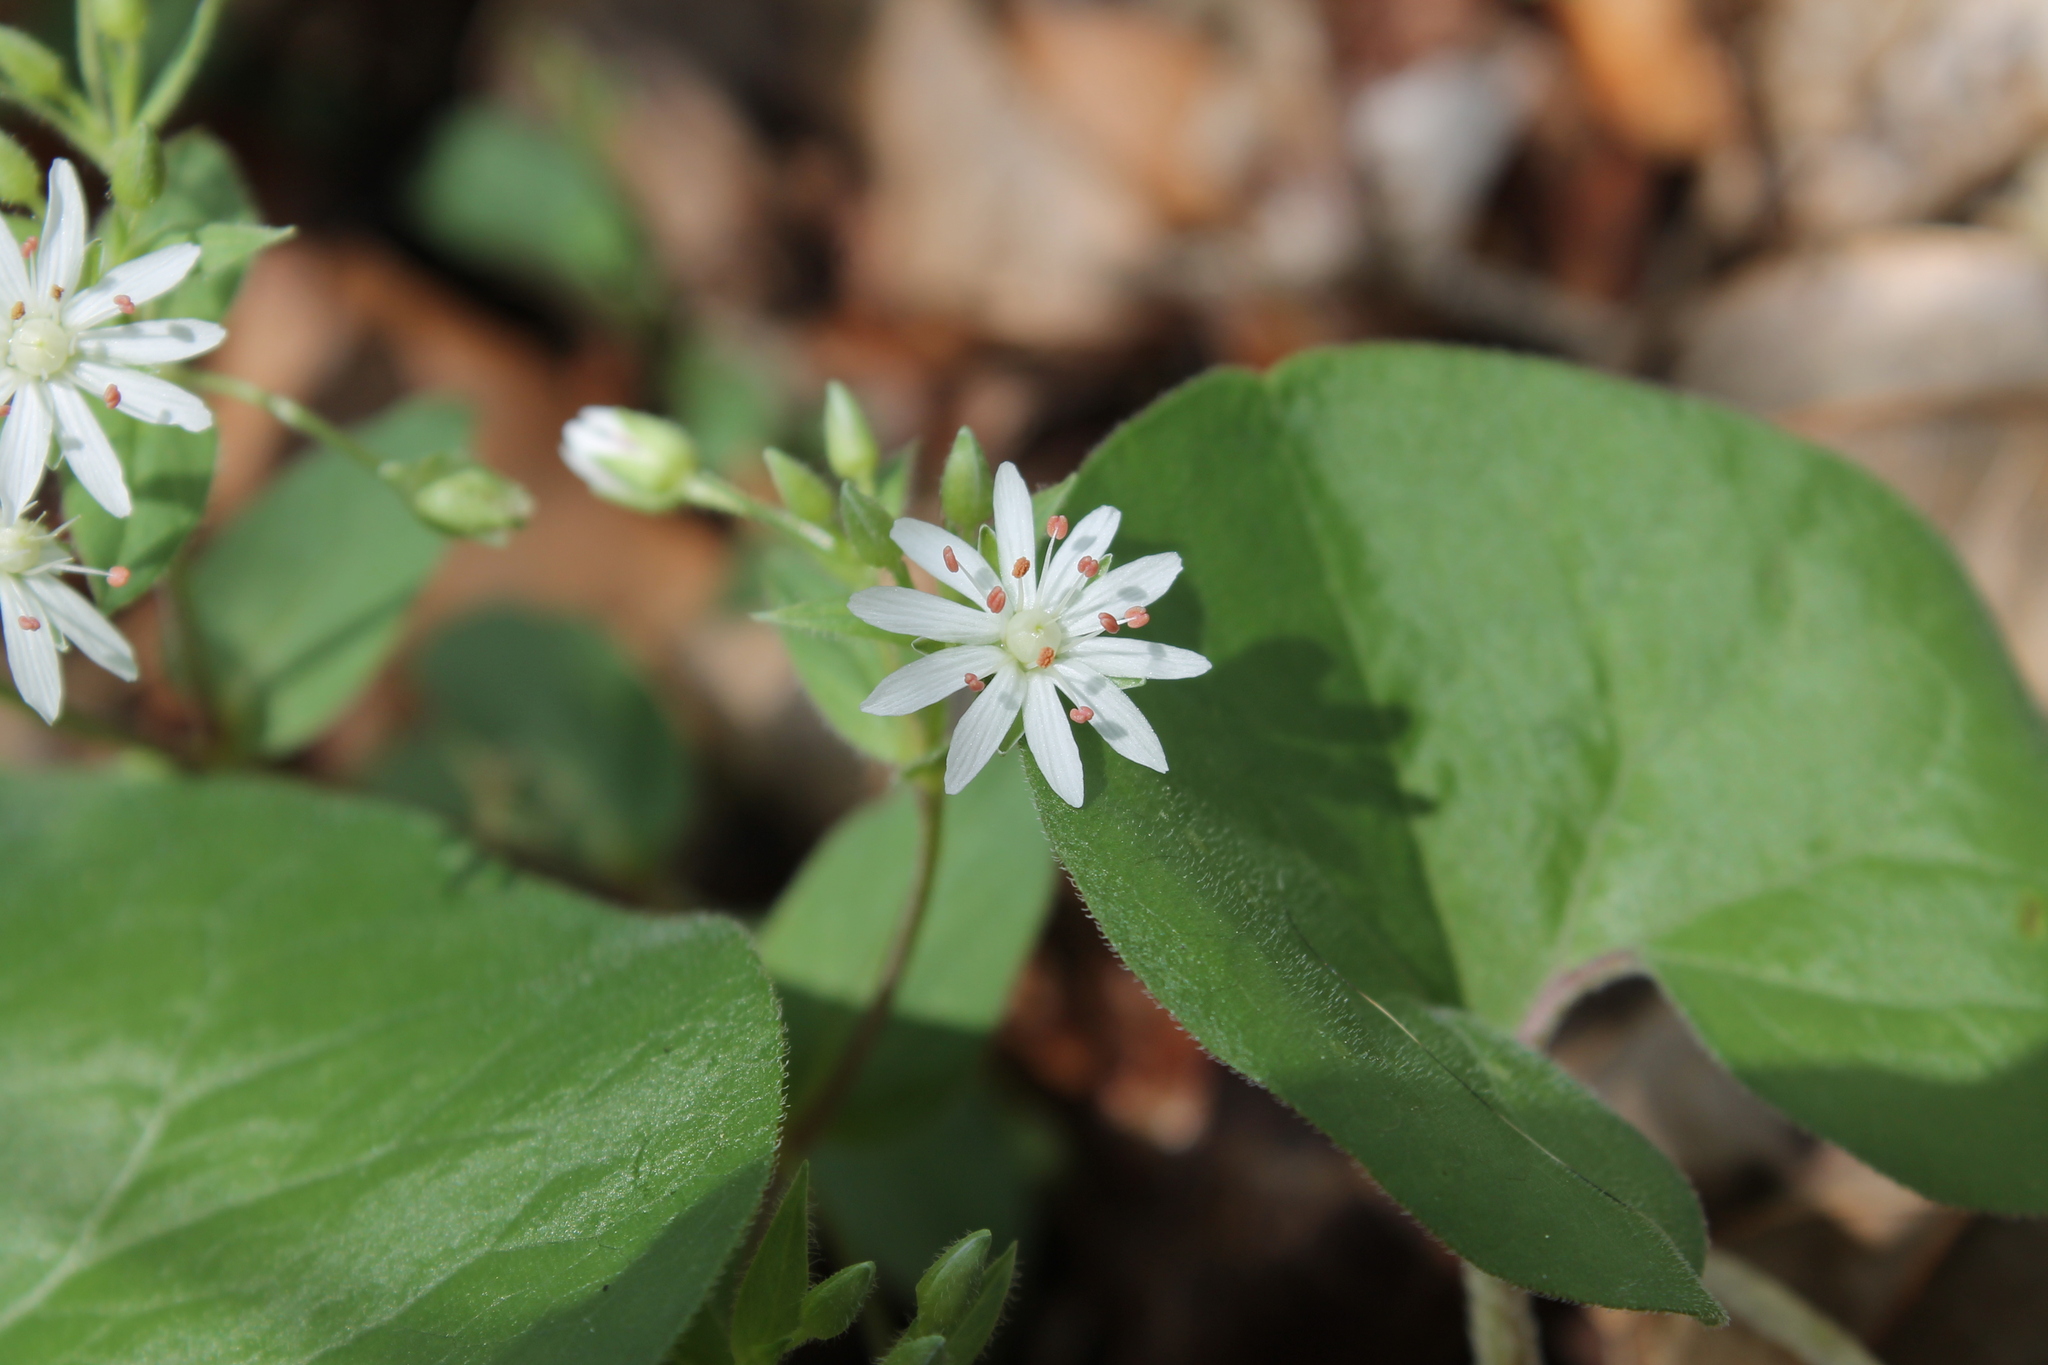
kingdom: Plantae
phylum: Tracheophyta
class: Magnoliopsida
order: Caryophyllales
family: Caryophyllaceae
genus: Stellaria
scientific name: Stellaria pubera
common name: Star chickweed
